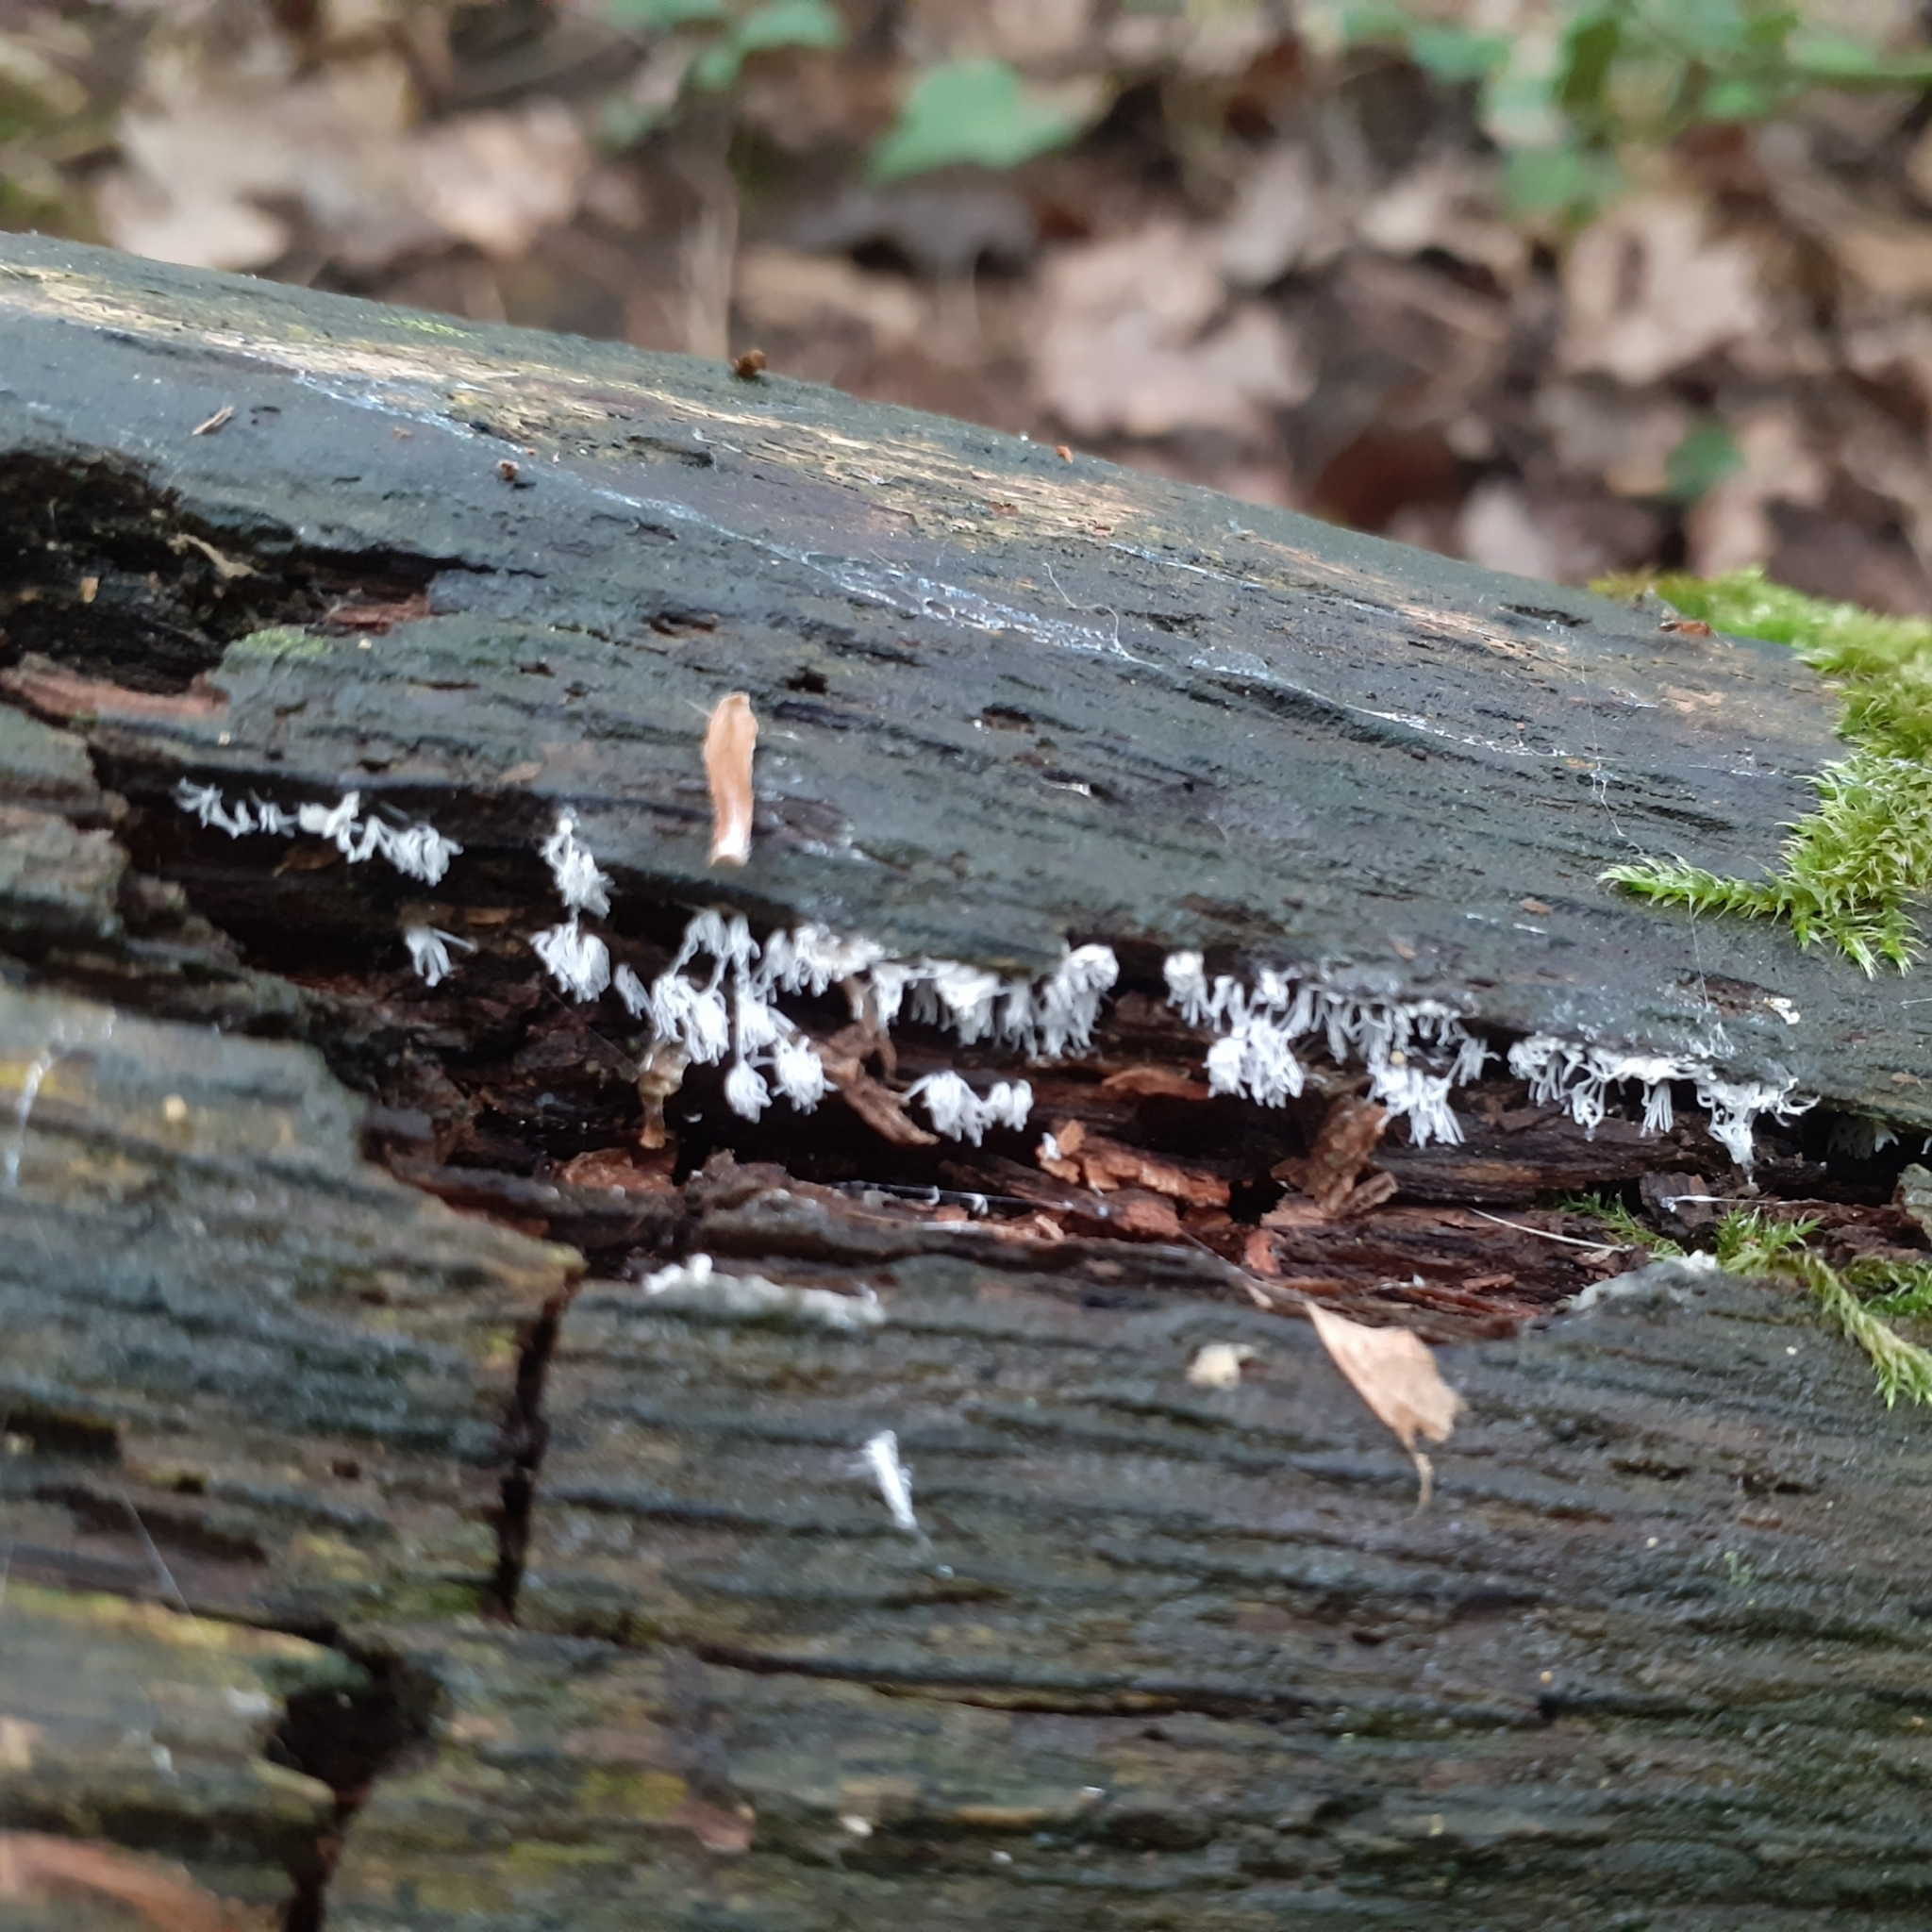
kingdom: Protozoa
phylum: Mycetozoa
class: Protosteliomycetes
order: Ceratiomyxales
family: Ceratiomyxaceae
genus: Ceratiomyxa
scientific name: Ceratiomyxa fruticulosa
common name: Honeycomb coral slime mold
